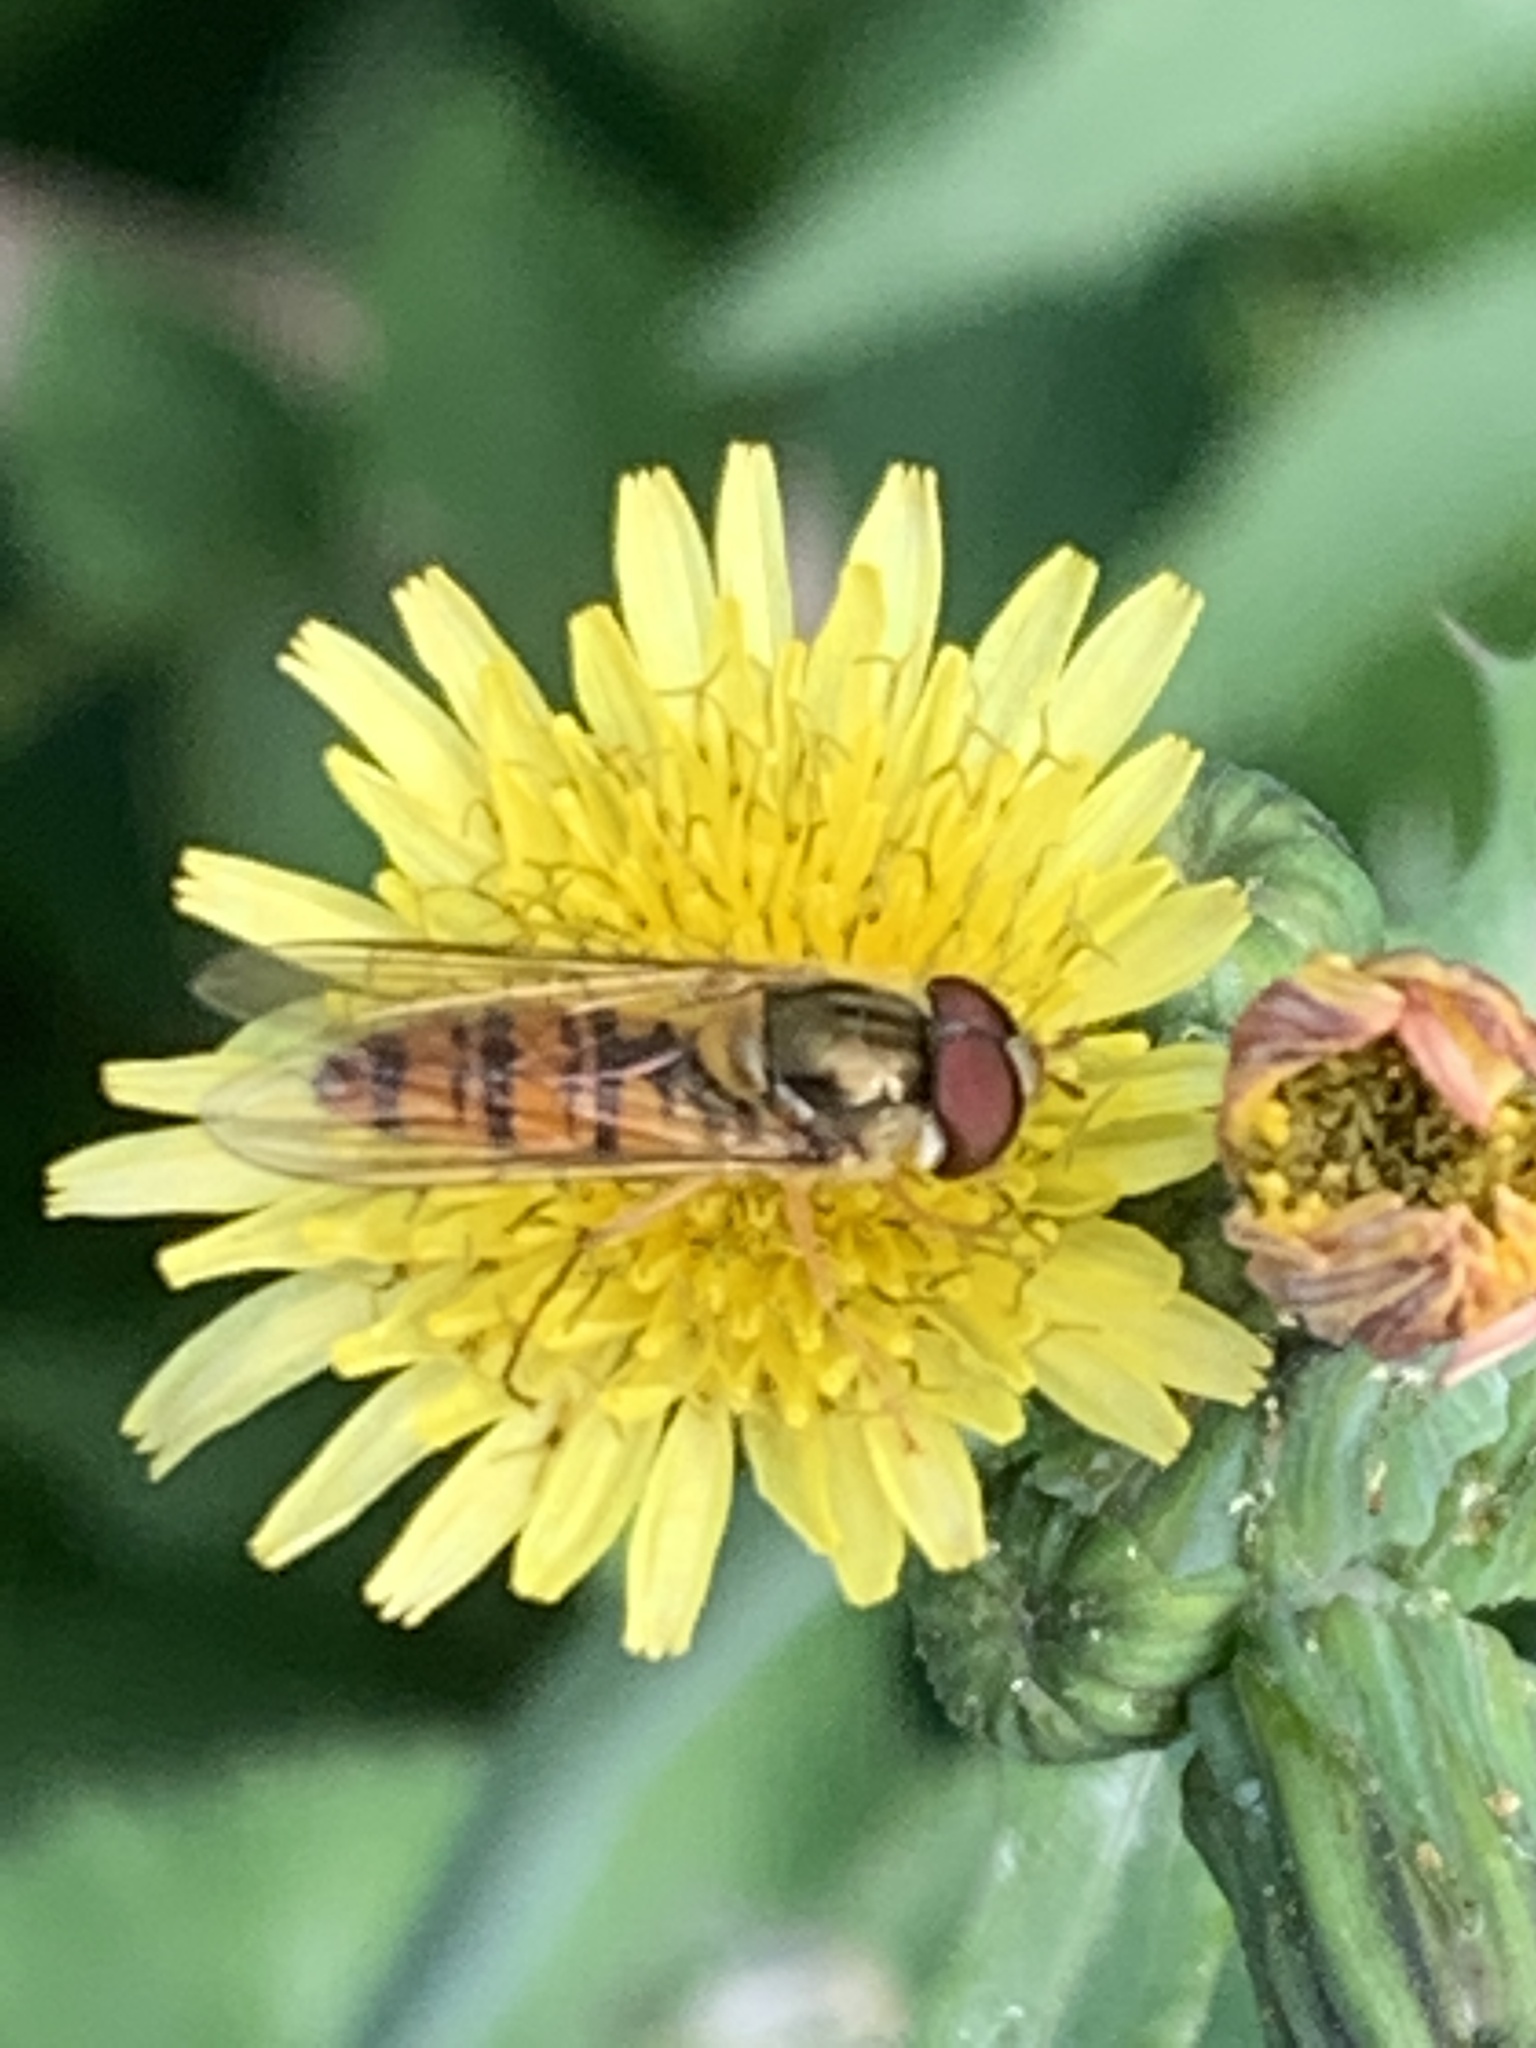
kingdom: Animalia
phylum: Arthropoda
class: Insecta
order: Diptera
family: Syrphidae
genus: Episyrphus
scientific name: Episyrphus balteatus
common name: Marmalade hoverfly
